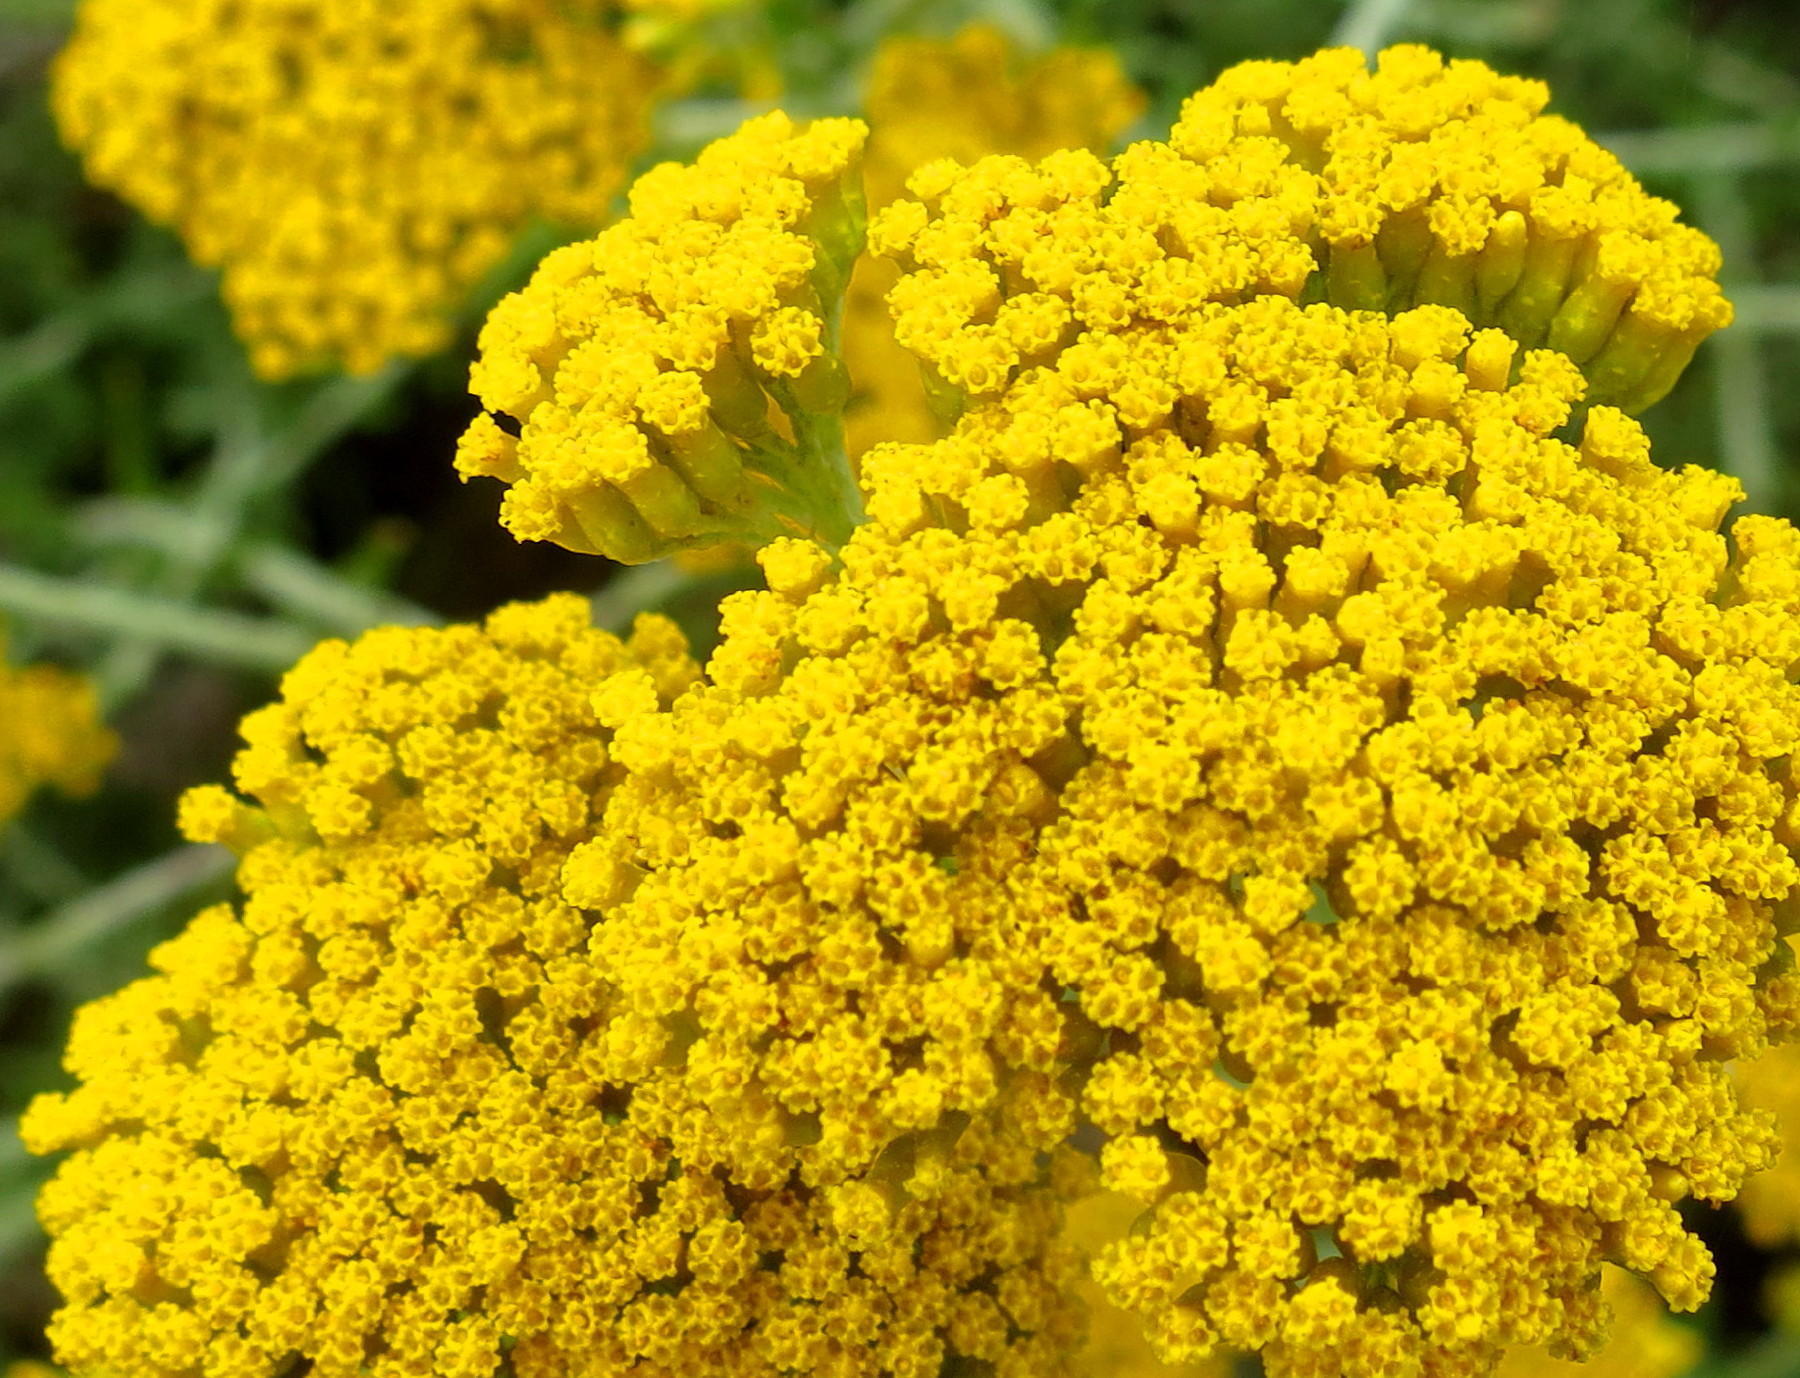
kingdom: Plantae
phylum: Tracheophyta
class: Magnoliopsida
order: Asterales
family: Asteraceae
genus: Helichrysum
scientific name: Helichrysum cymosum
